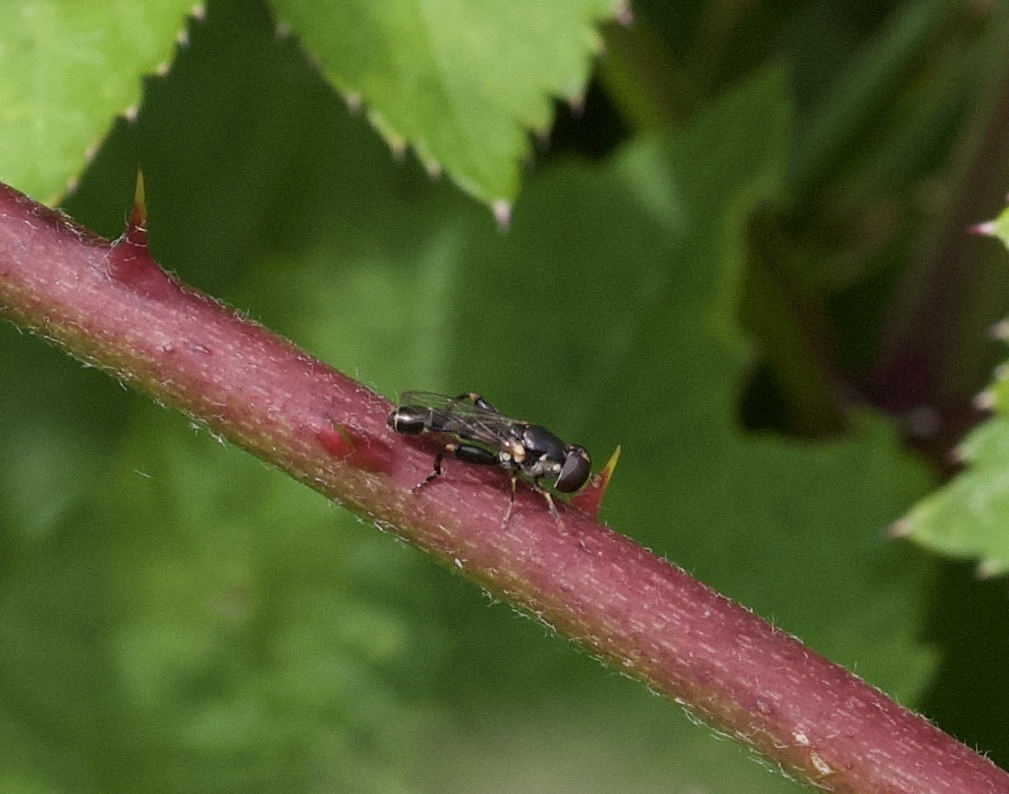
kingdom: Animalia
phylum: Arthropoda
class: Insecta
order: Diptera
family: Syrphidae
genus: Syritta
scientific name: Syritta pipiens
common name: Hover fly
